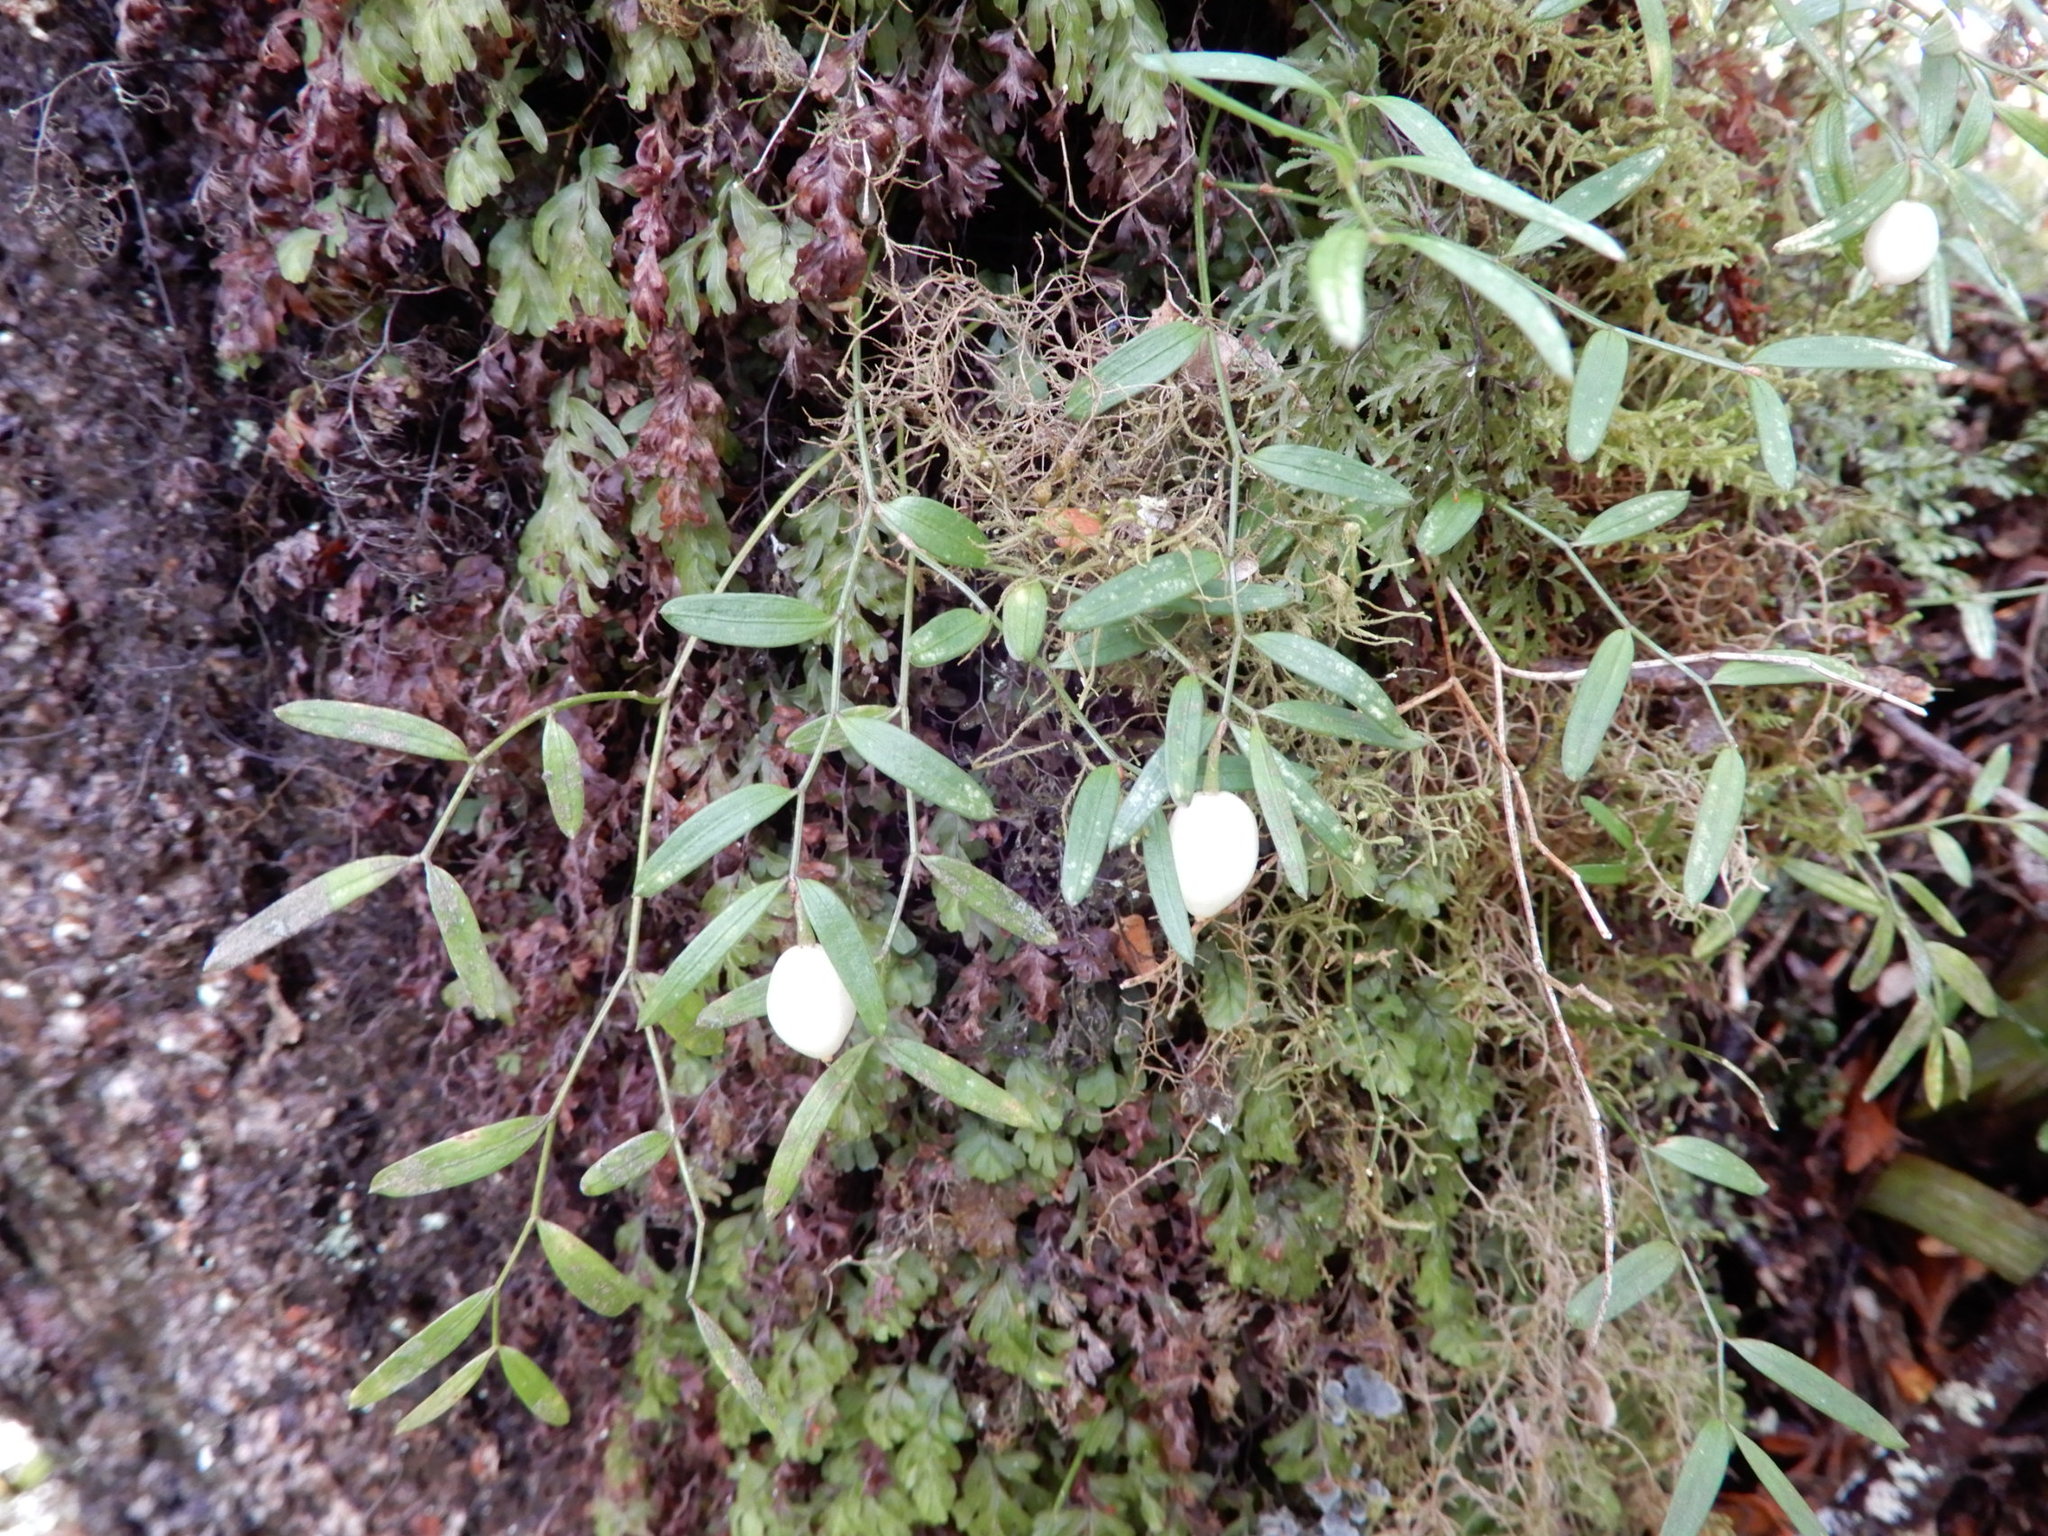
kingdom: Plantae
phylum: Tracheophyta
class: Liliopsida
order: Liliales
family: Alstroemeriaceae
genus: Luzuriaga
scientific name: Luzuriaga parviflora
